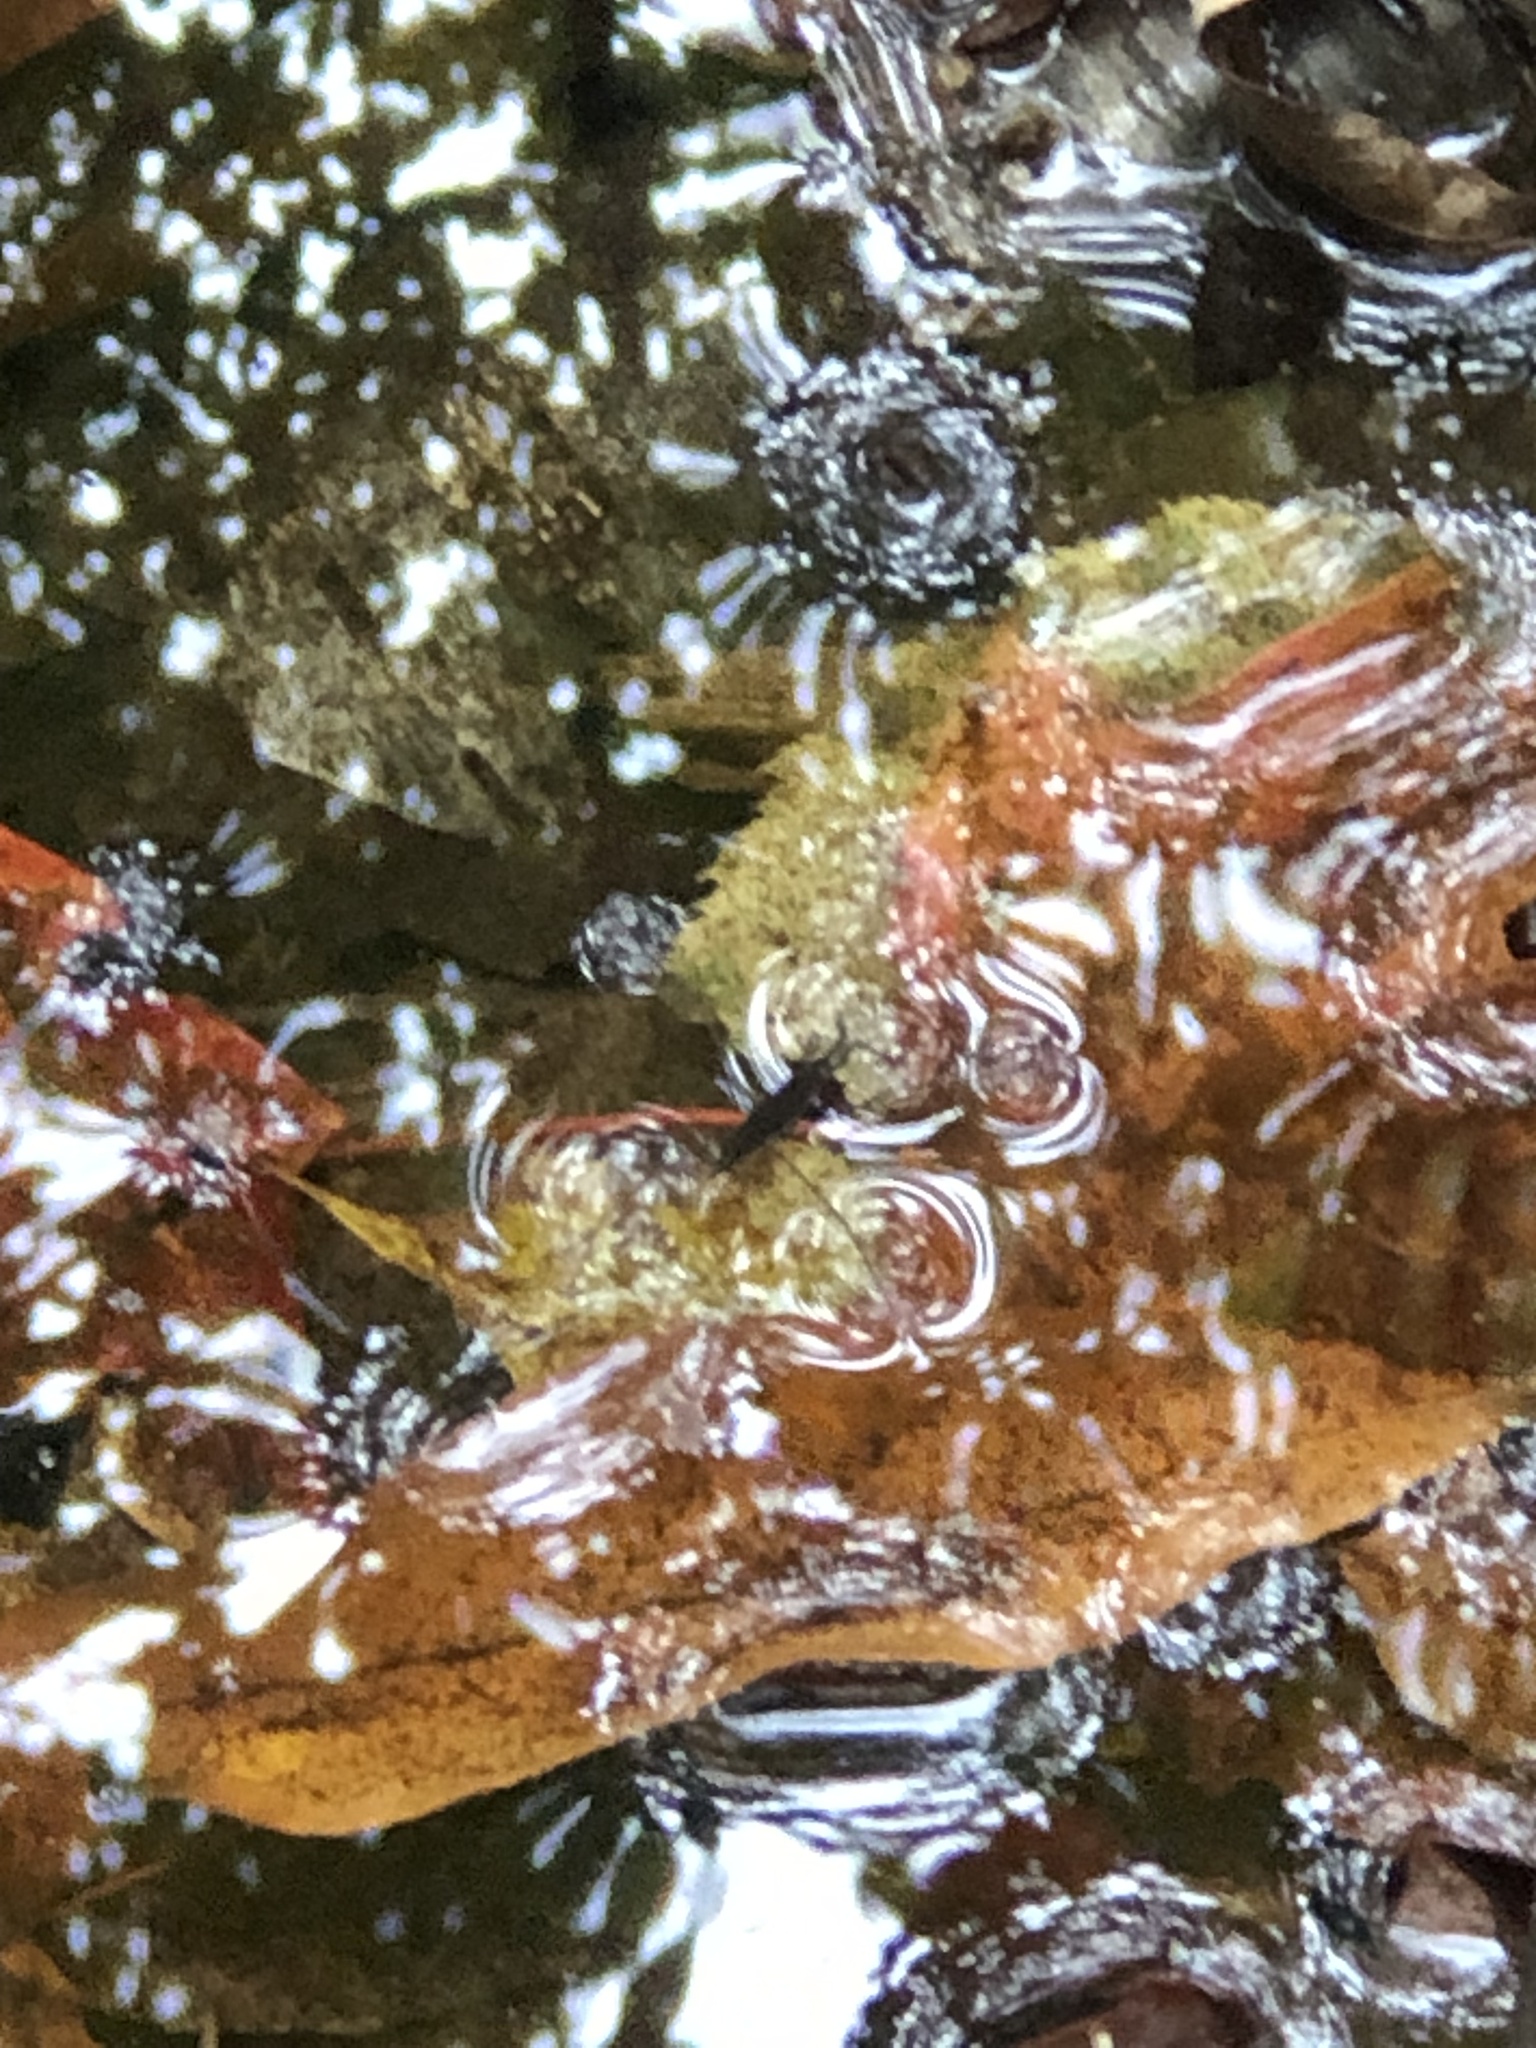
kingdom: Animalia
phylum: Arthropoda
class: Insecta
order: Hemiptera
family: Gerridae
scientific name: Gerridae
